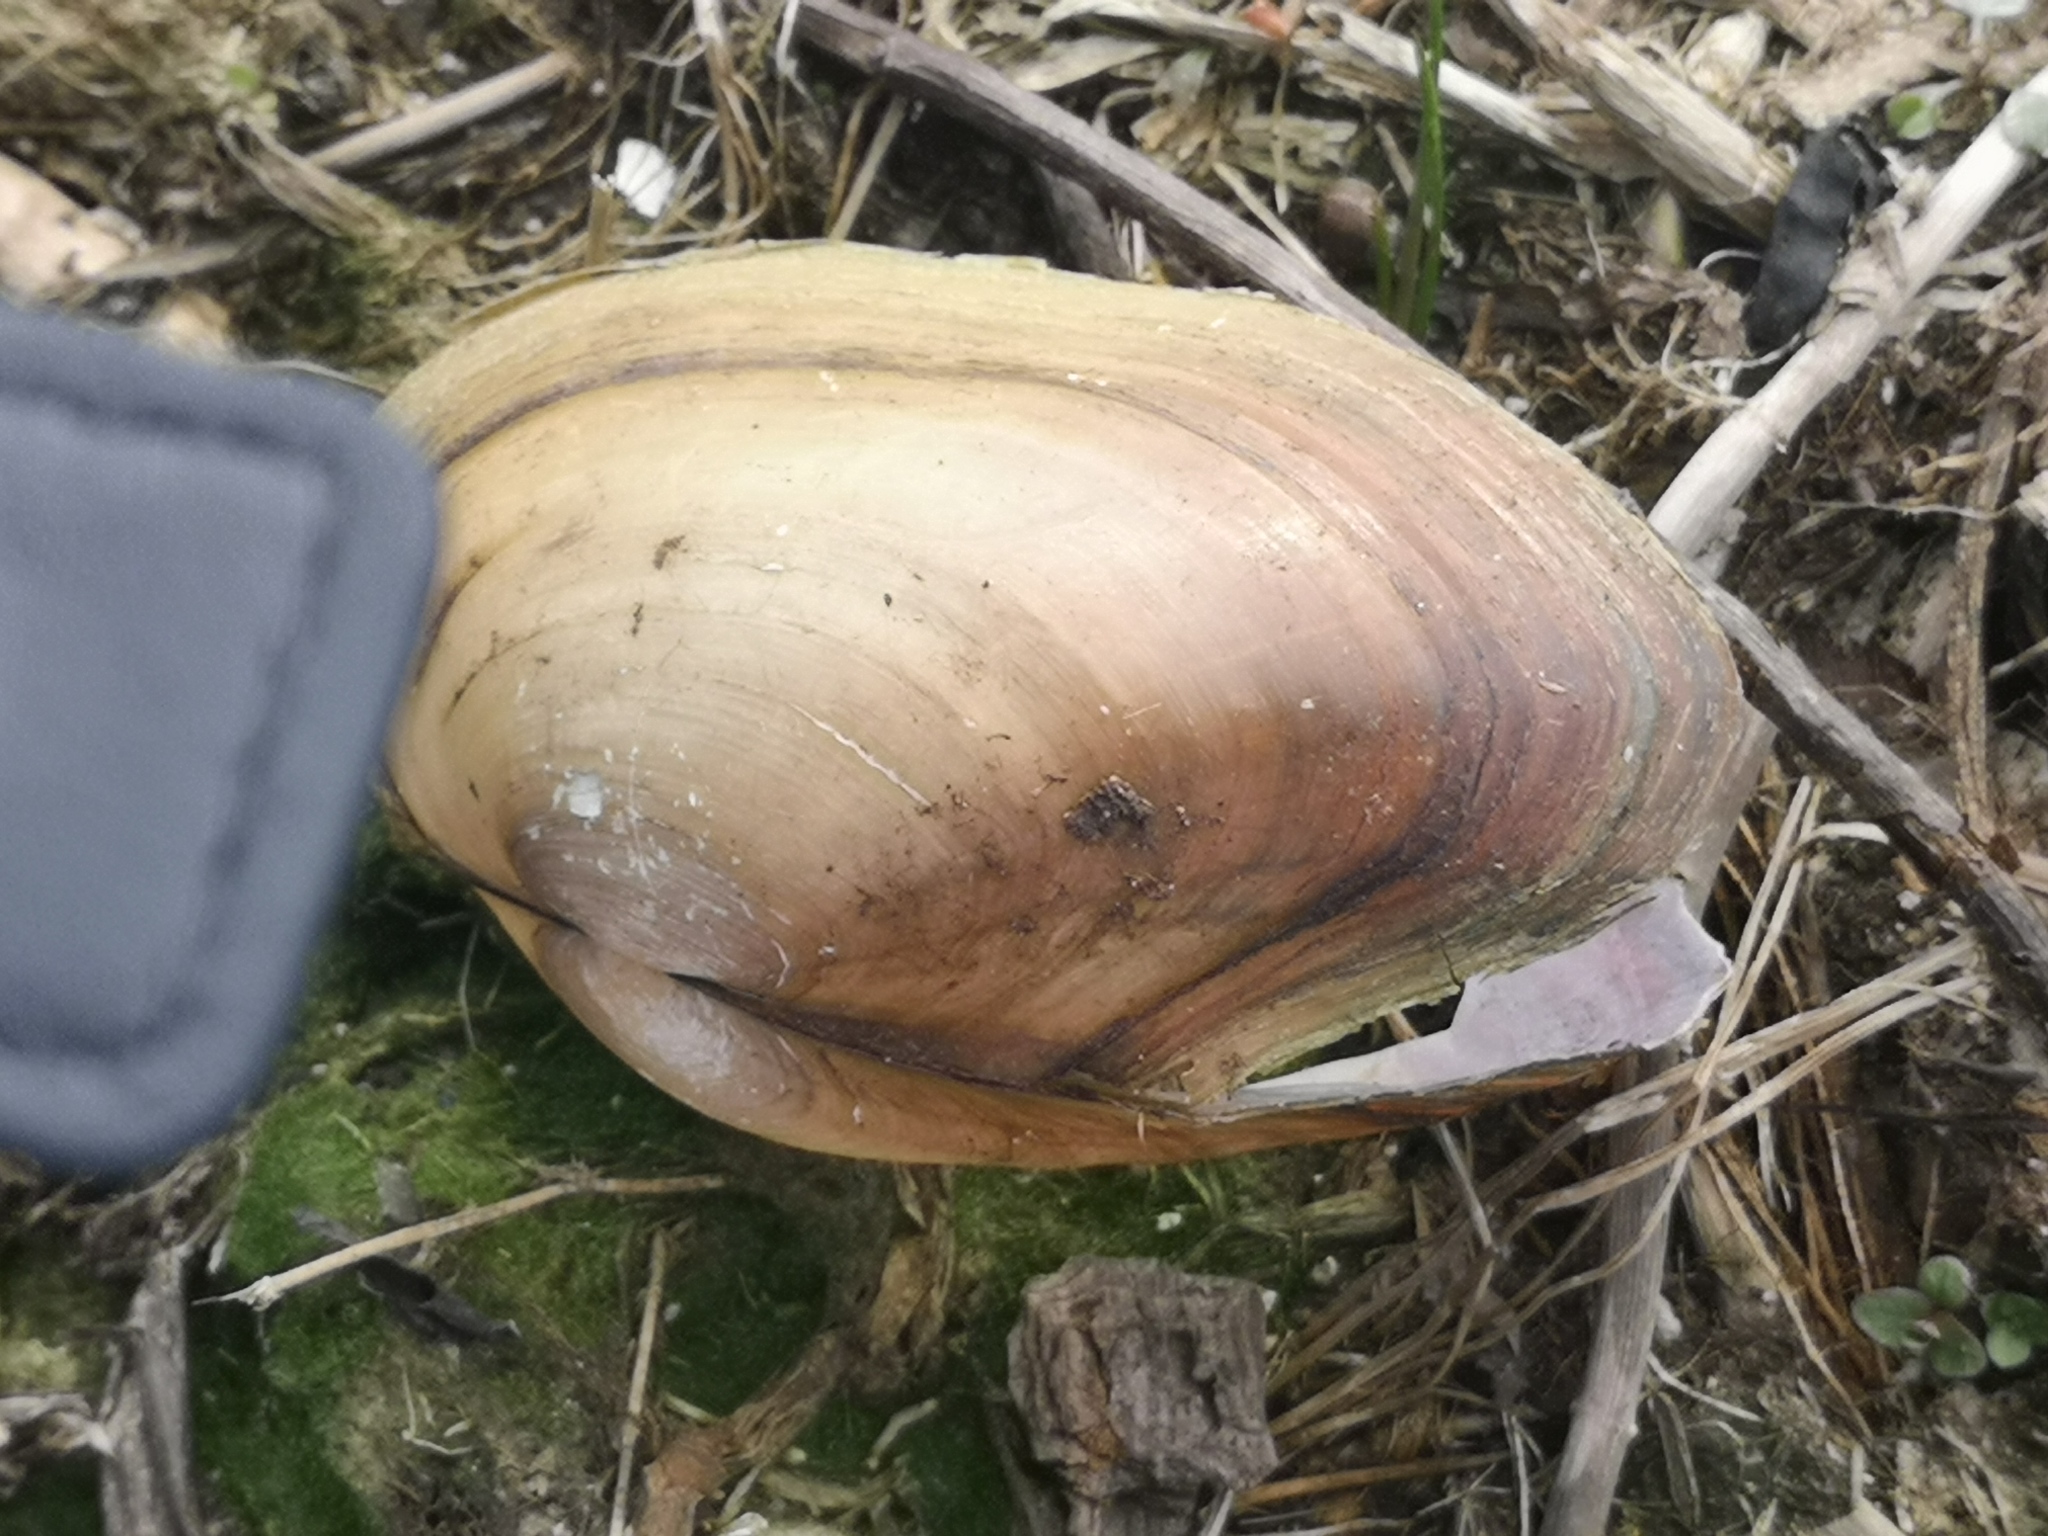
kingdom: Animalia
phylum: Mollusca
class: Bivalvia
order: Unionida
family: Unionidae
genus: Anodonta
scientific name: Anodonta anatina
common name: Duck mussel
